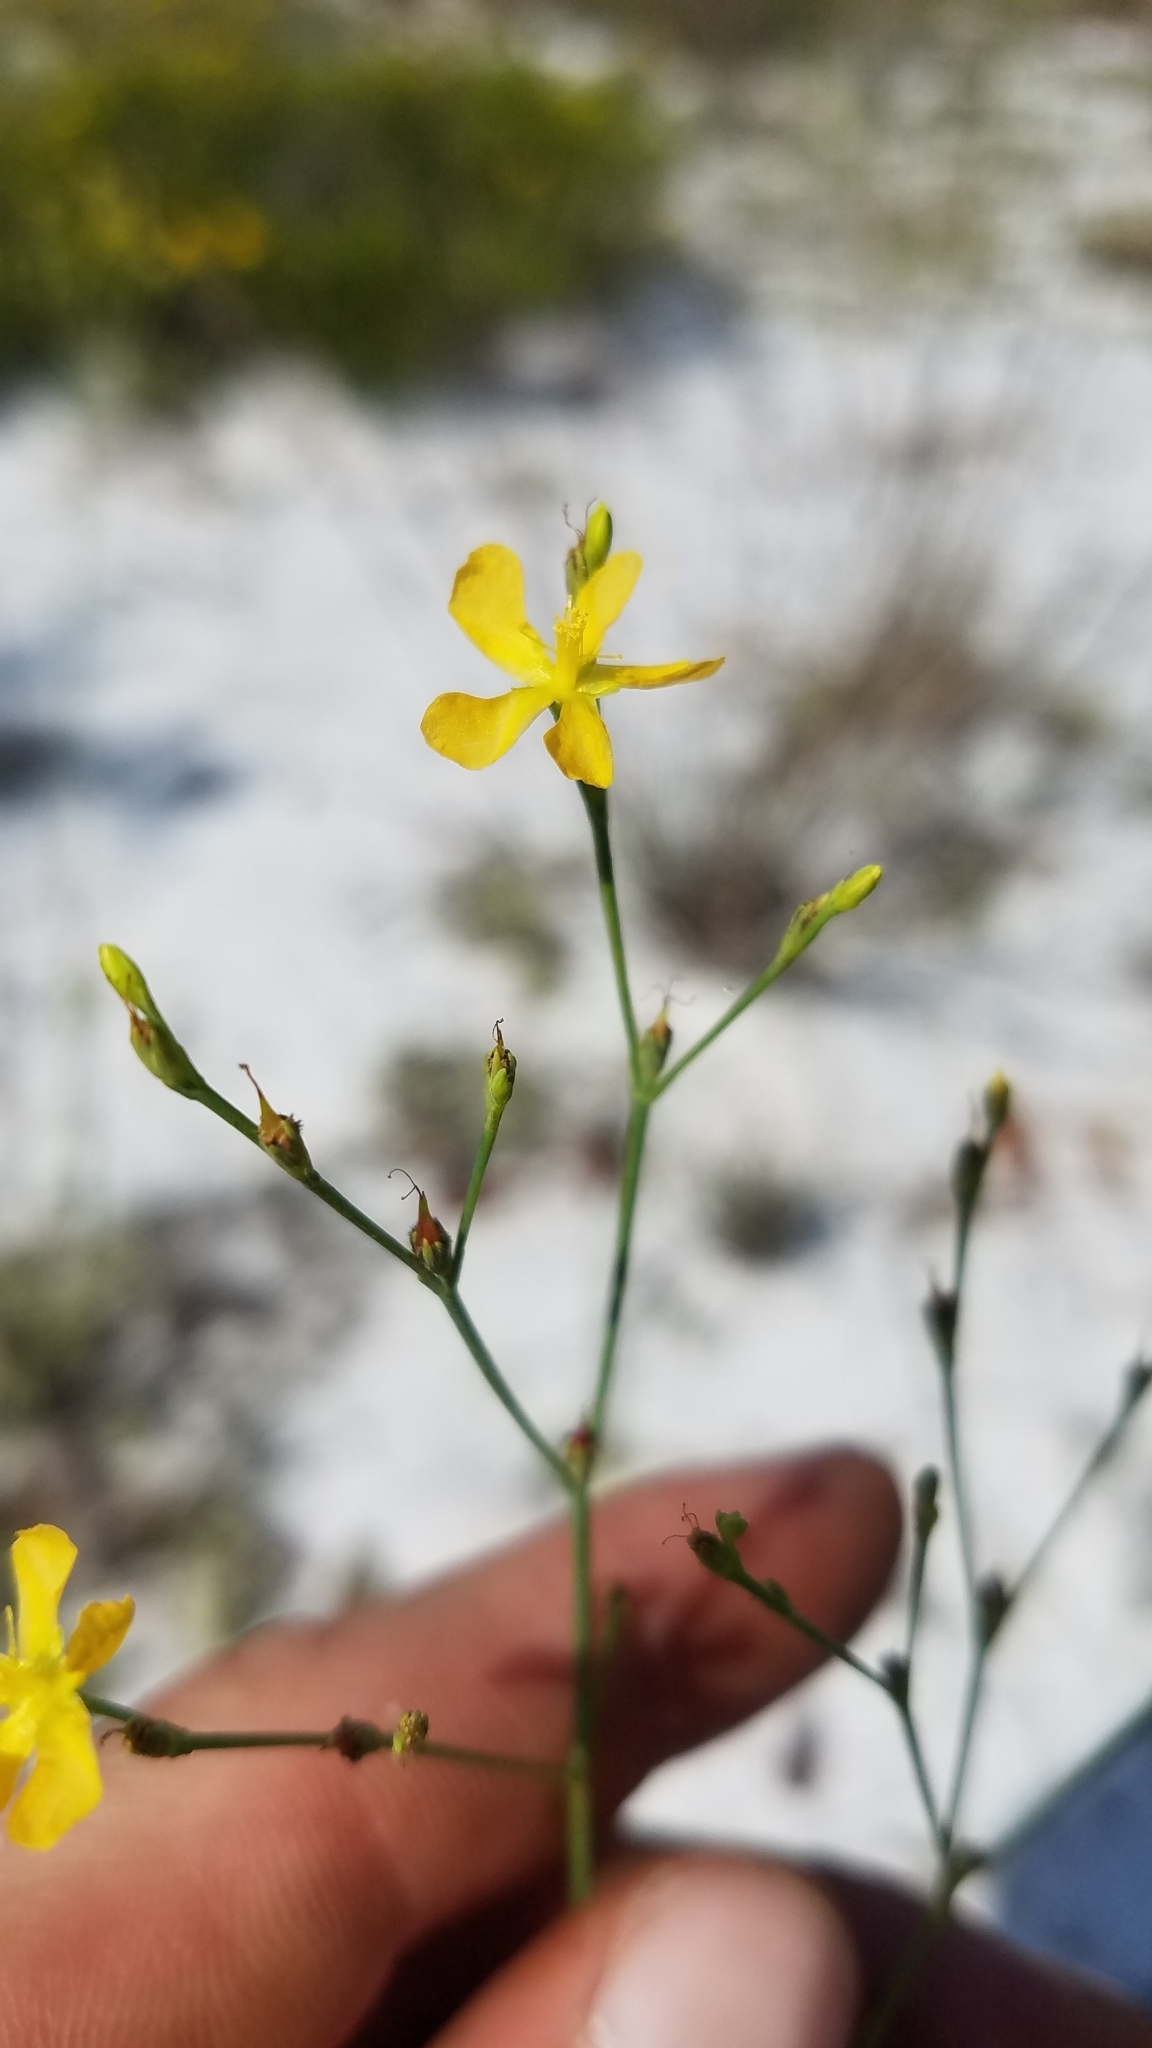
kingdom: Plantae
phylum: Tracheophyta
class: Magnoliopsida
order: Malpighiales
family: Hypericaceae
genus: Hypericum
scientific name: Hypericum cumulicola
